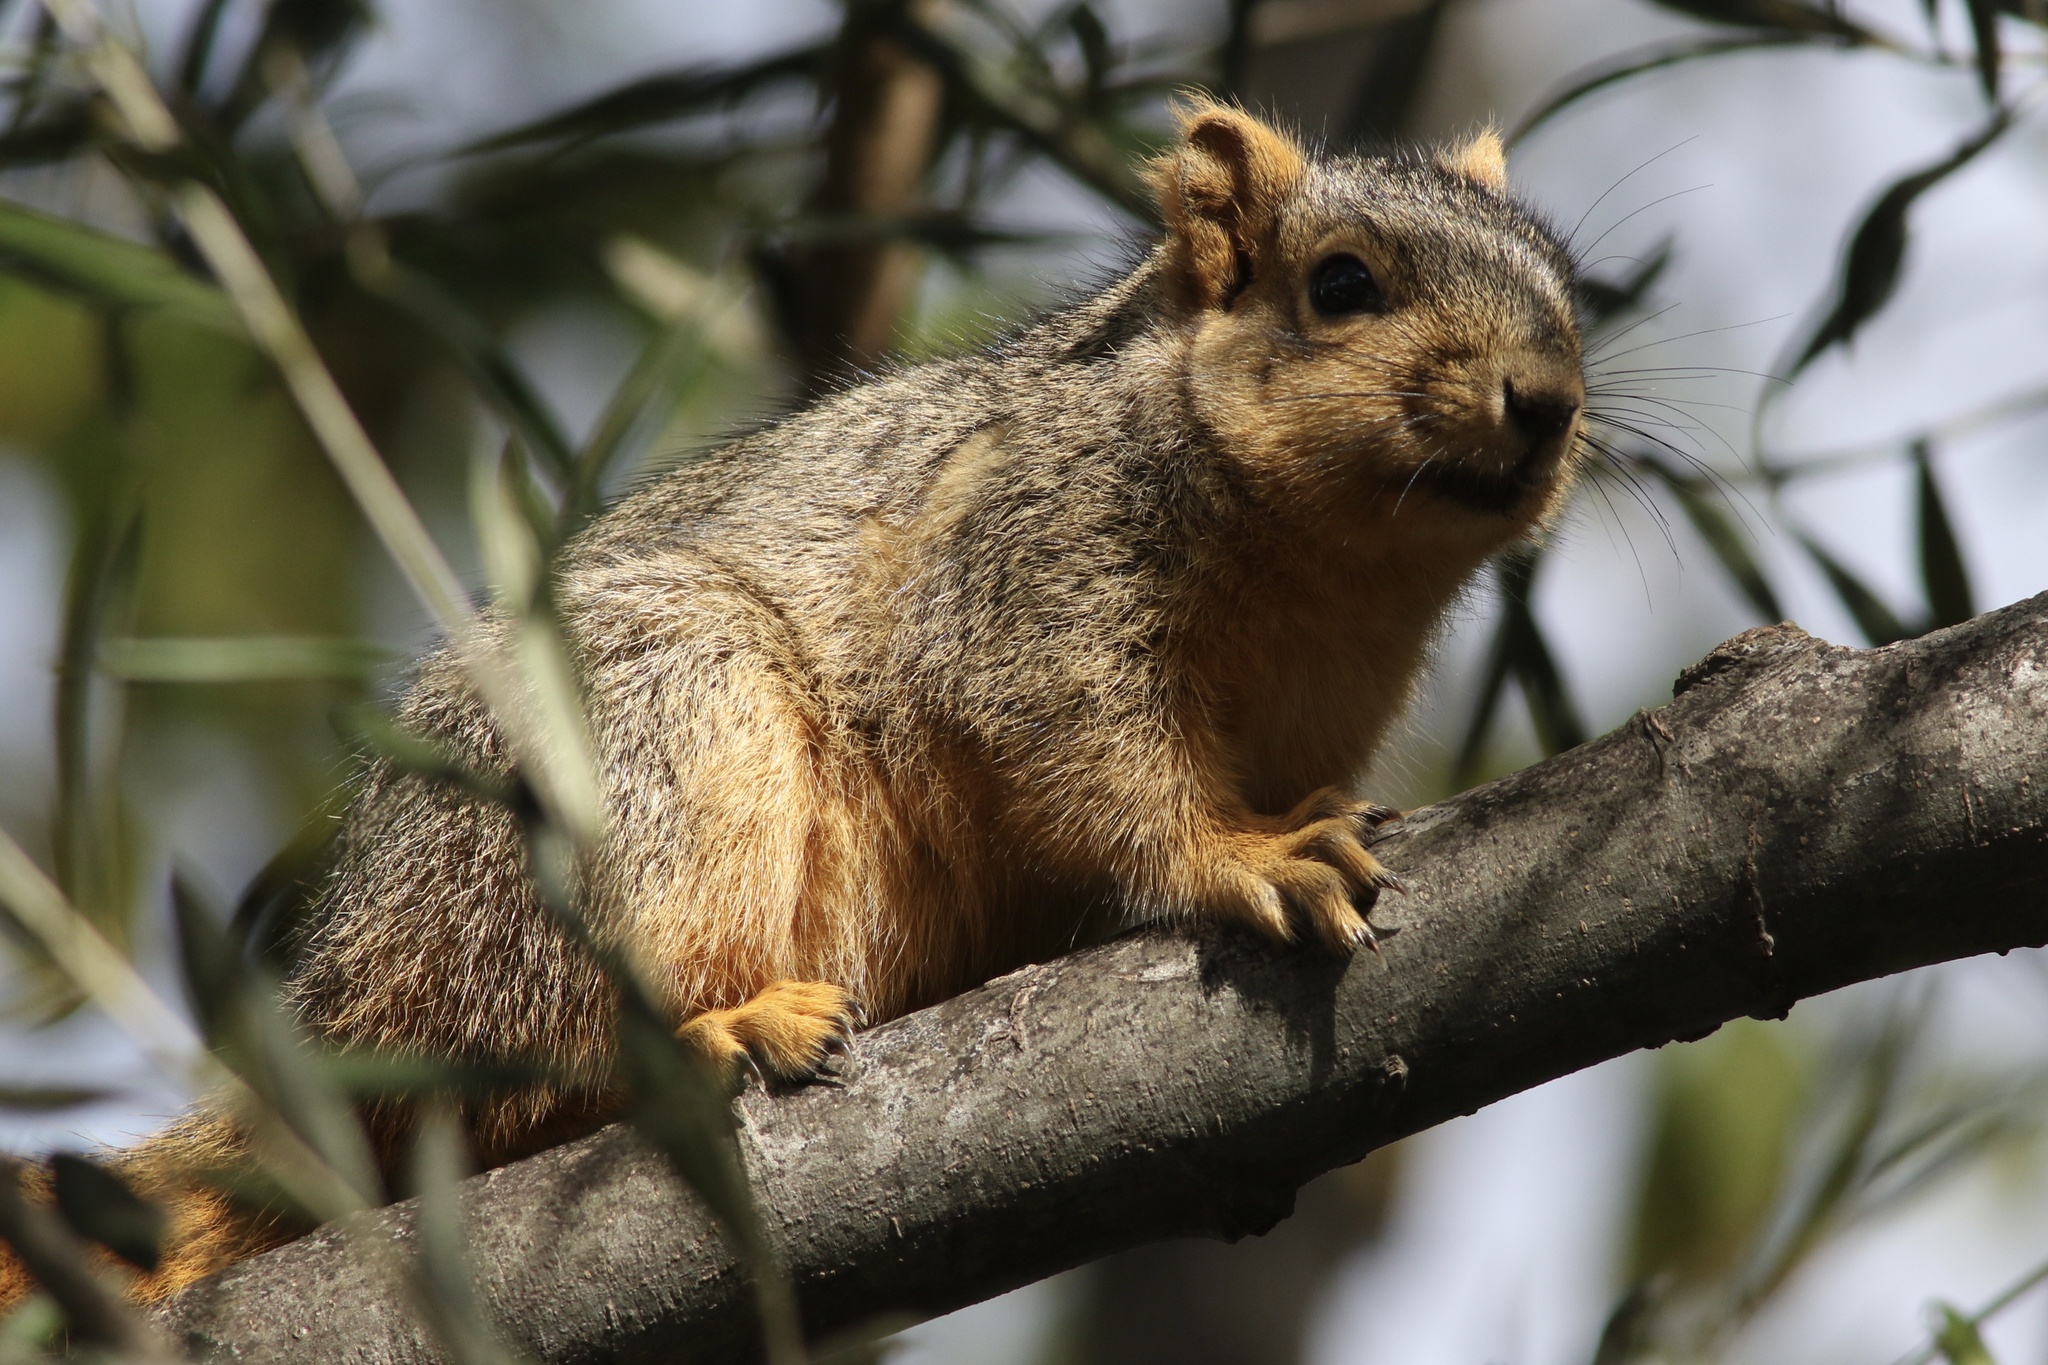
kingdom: Animalia
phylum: Chordata
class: Mammalia
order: Rodentia
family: Sciuridae
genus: Sciurus
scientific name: Sciurus niger
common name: Fox squirrel
